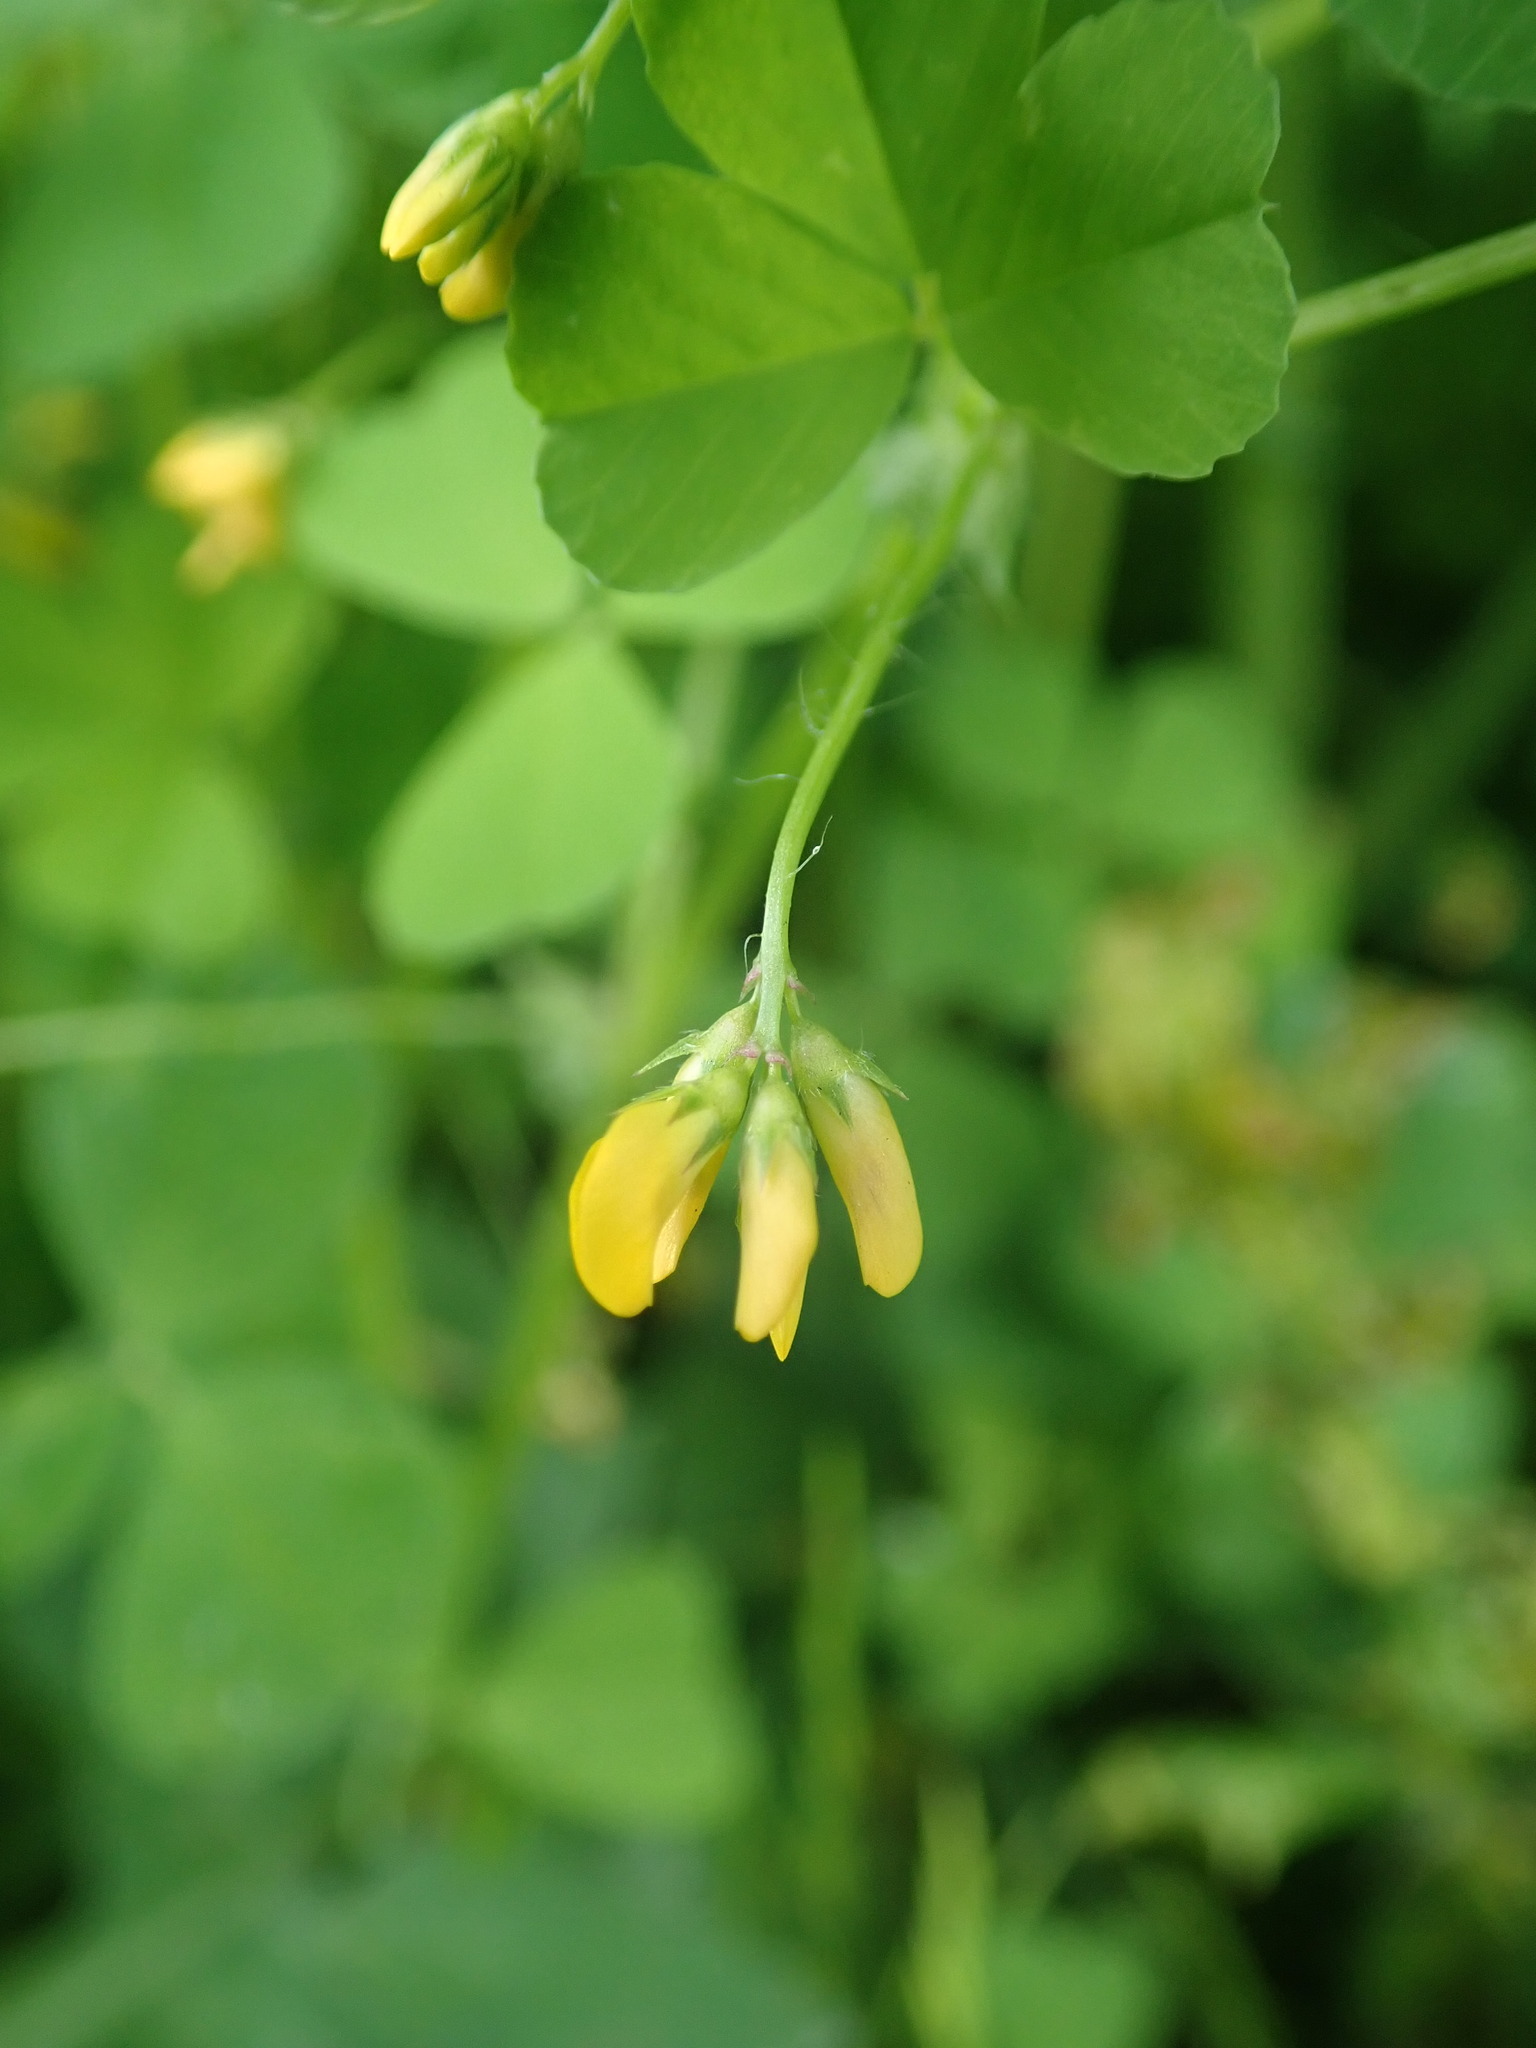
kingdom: Plantae
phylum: Tracheophyta
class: Magnoliopsida
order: Fabales
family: Fabaceae
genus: Medicago
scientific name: Medicago arabica
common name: Spotted medick
